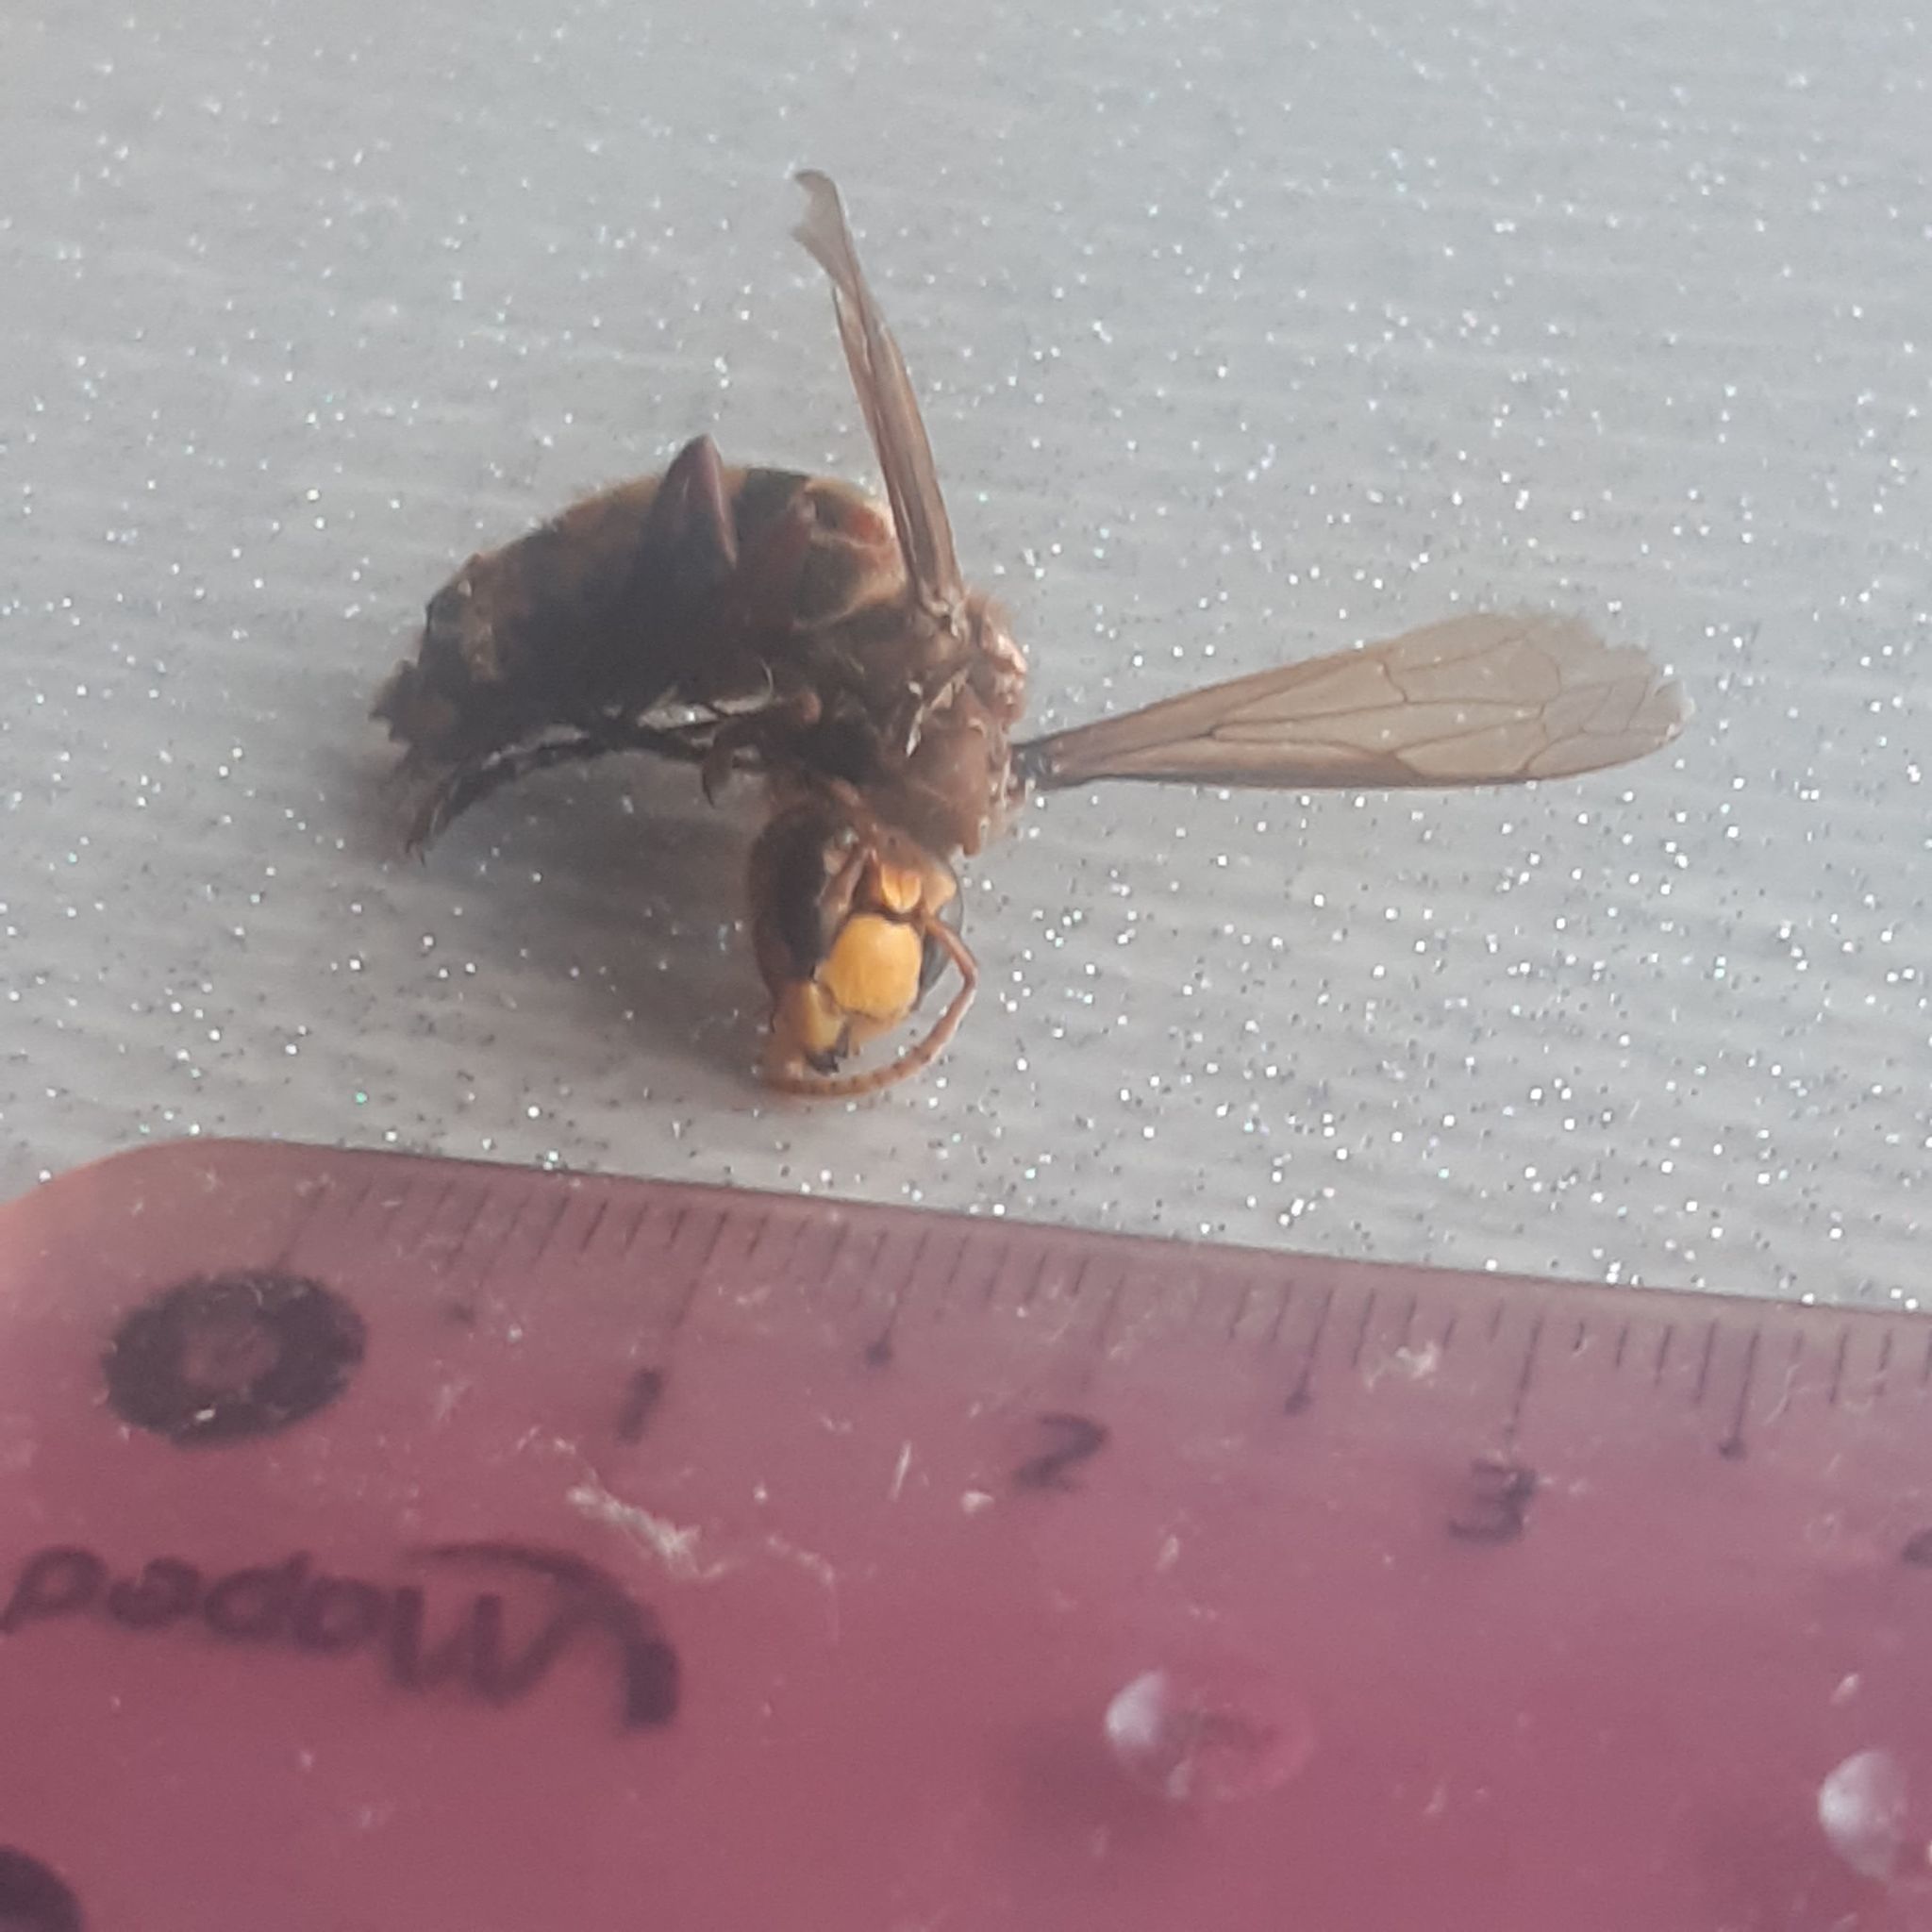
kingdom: Animalia
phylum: Arthropoda
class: Insecta
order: Hymenoptera
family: Vespidae
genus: Vespa
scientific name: Vespa crabro
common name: Hornet
